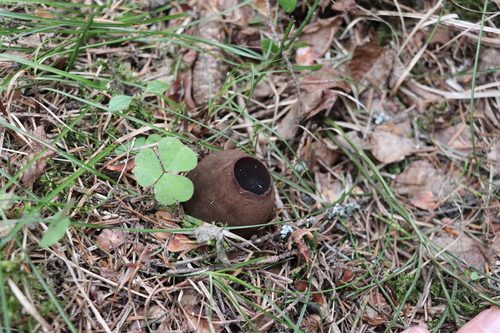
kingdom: Fungi
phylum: Ascomycota
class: Pezizomycetes
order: Pezizales
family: Sarcosomataceae
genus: Sarcosoma
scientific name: Sarcosoma globosum
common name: Charred-pancake cup
